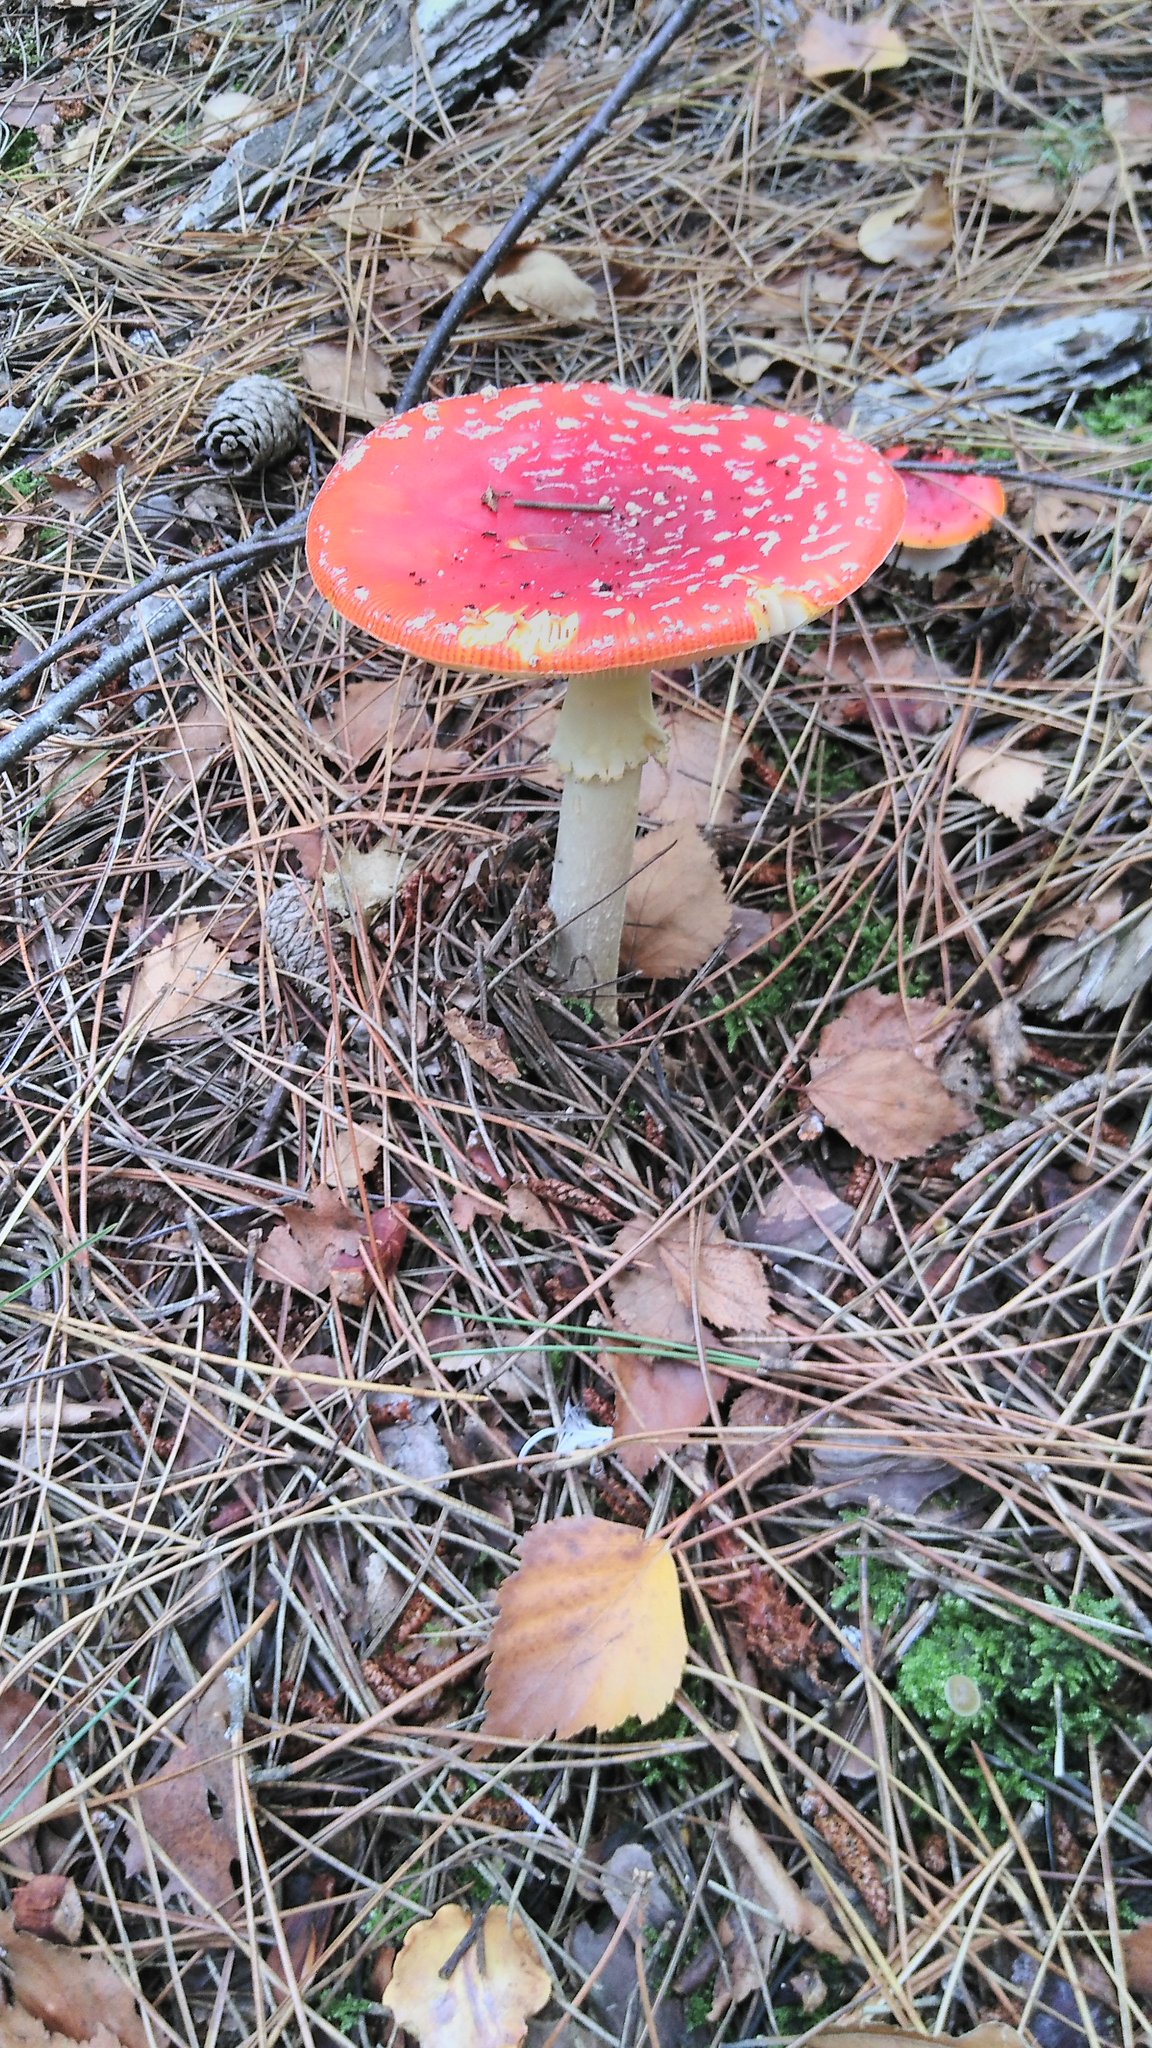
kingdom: Fungi
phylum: Basidiomycota
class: Agaricomycetes
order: Agaricales
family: Amanitaceae
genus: Amanita
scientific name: Amanita muscaria
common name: Fly agaric
